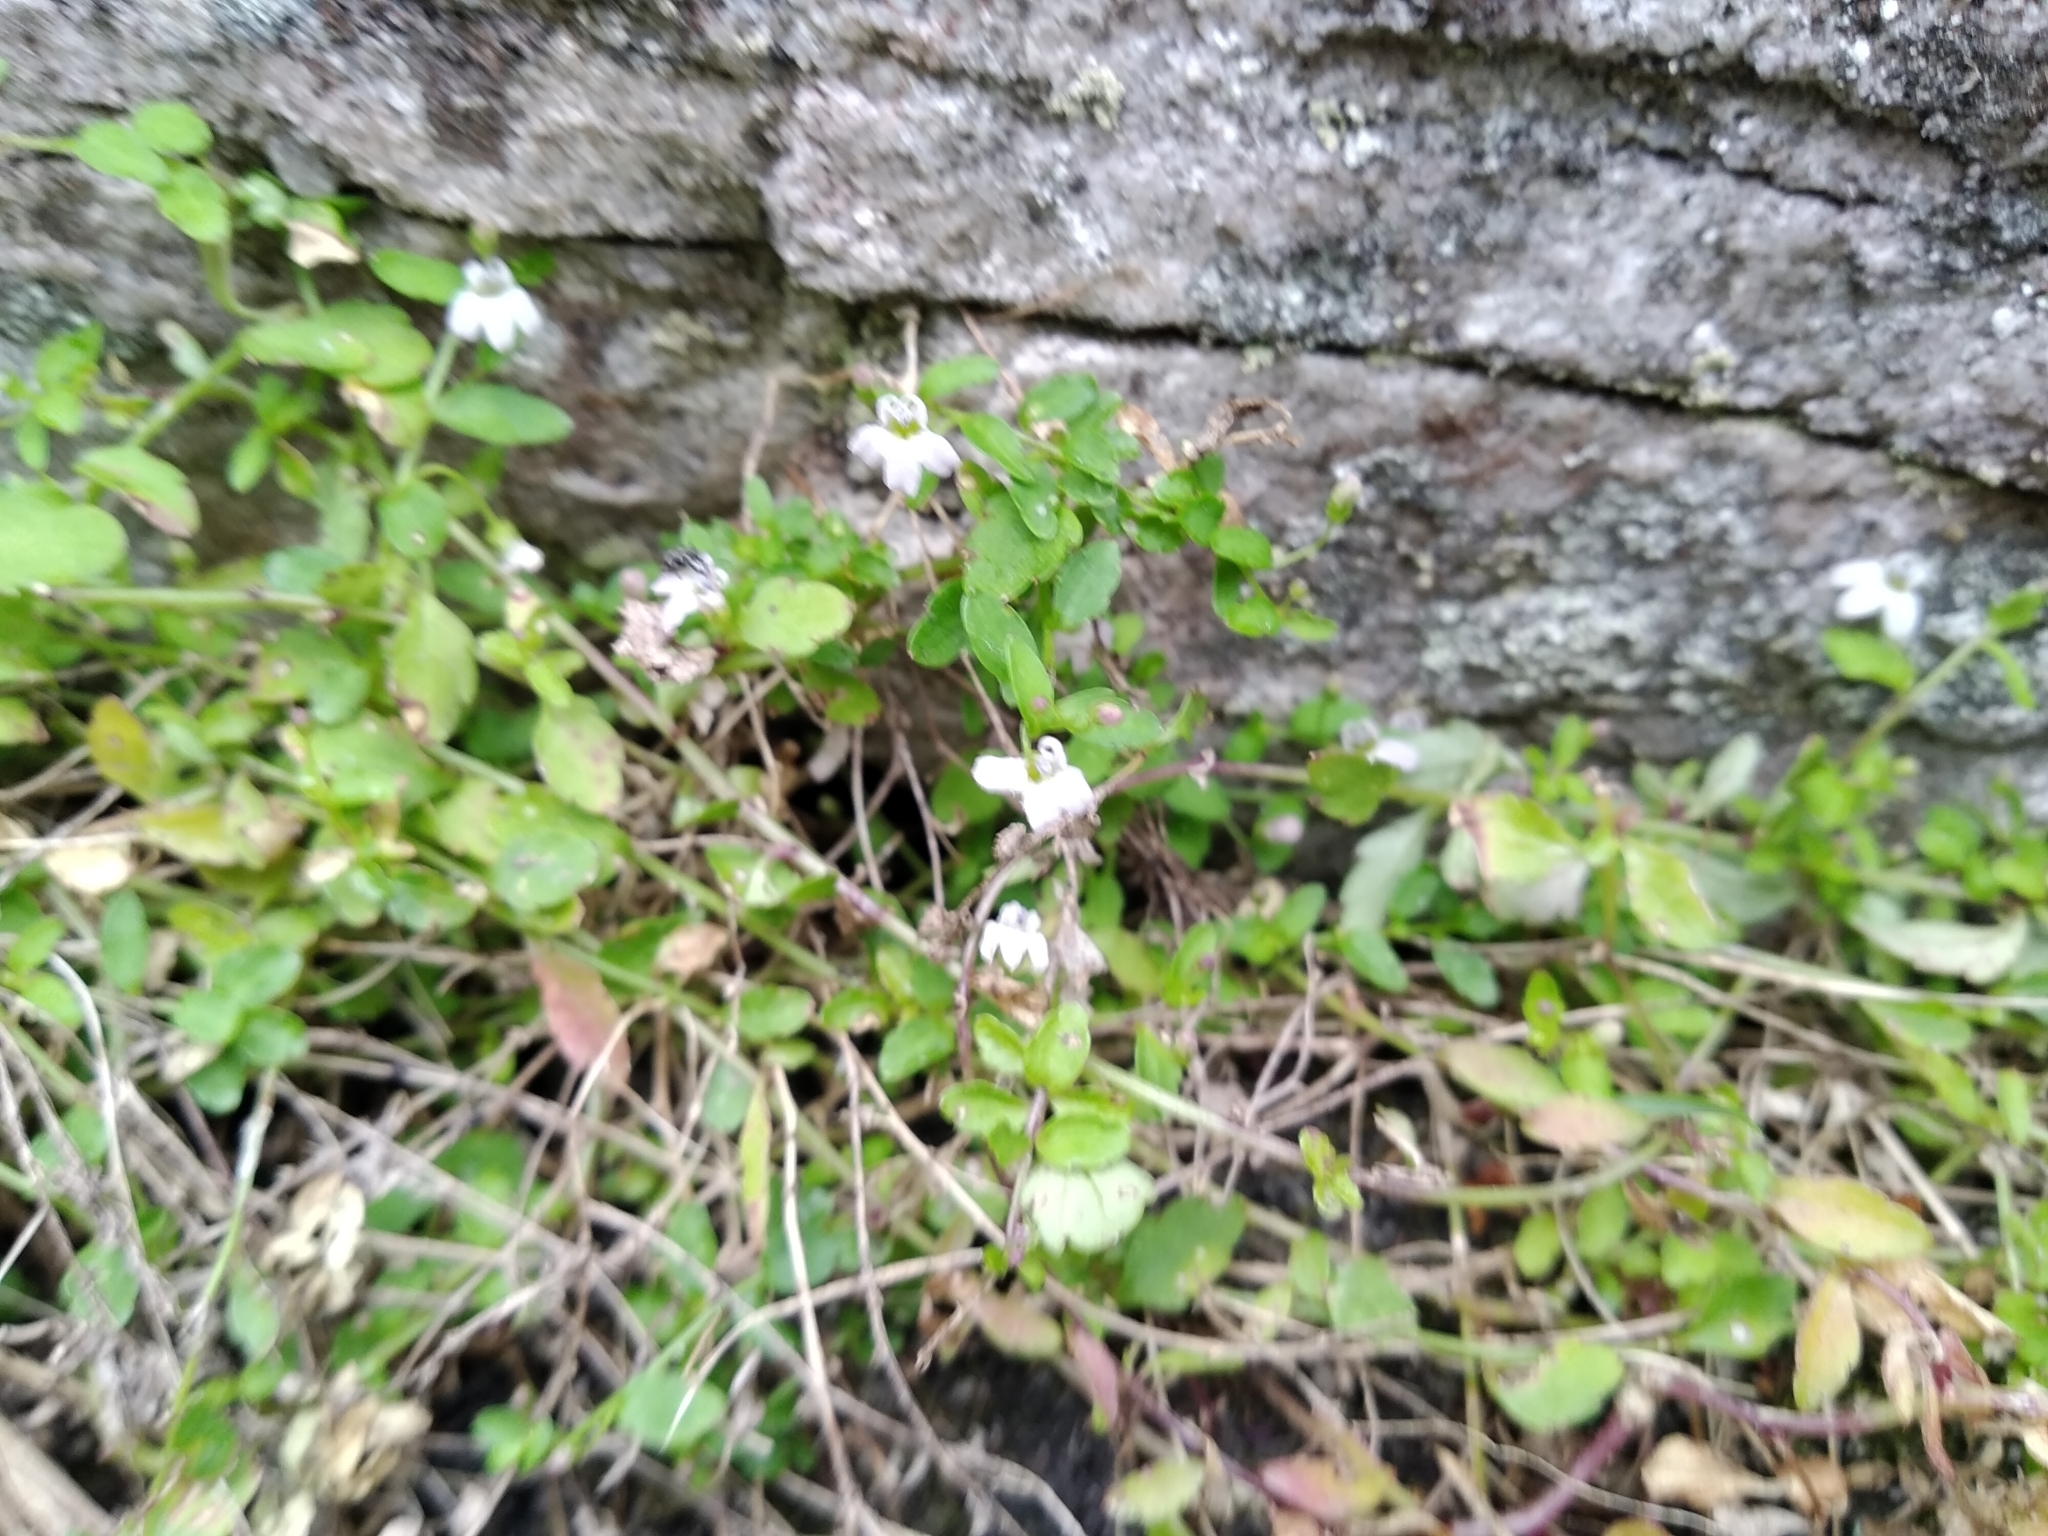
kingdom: Plantae
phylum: Tracheophyta
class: Magnoliopsida
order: Asterales
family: Campanulaceae
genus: Unigenes
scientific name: Unigenes humifusa
